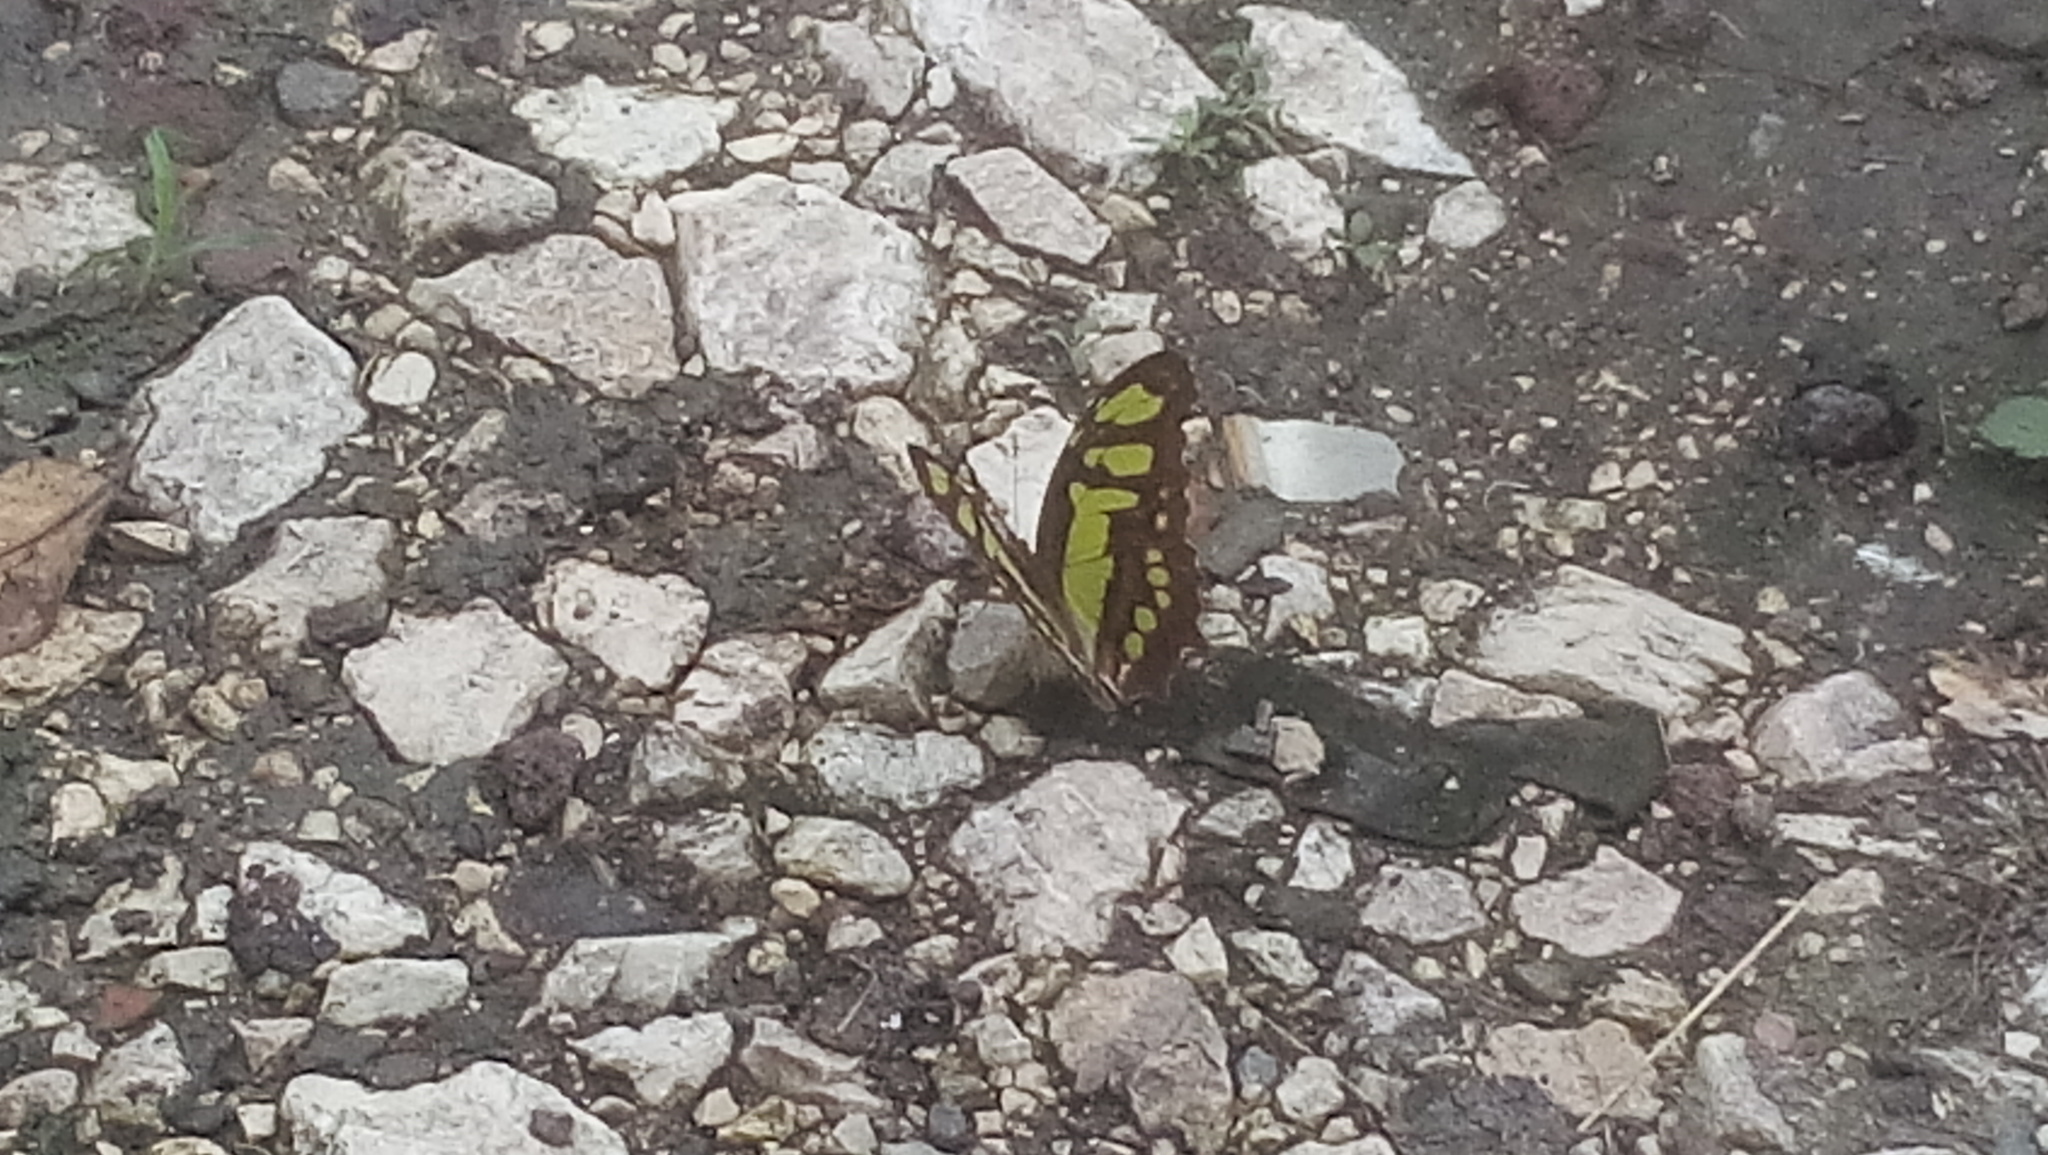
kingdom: Animalia
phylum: Arthropoda
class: Insecta
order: Lepidoptera
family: Nymphalidae
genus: Siproeta
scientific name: Siproeta stelenes
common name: Malachite
